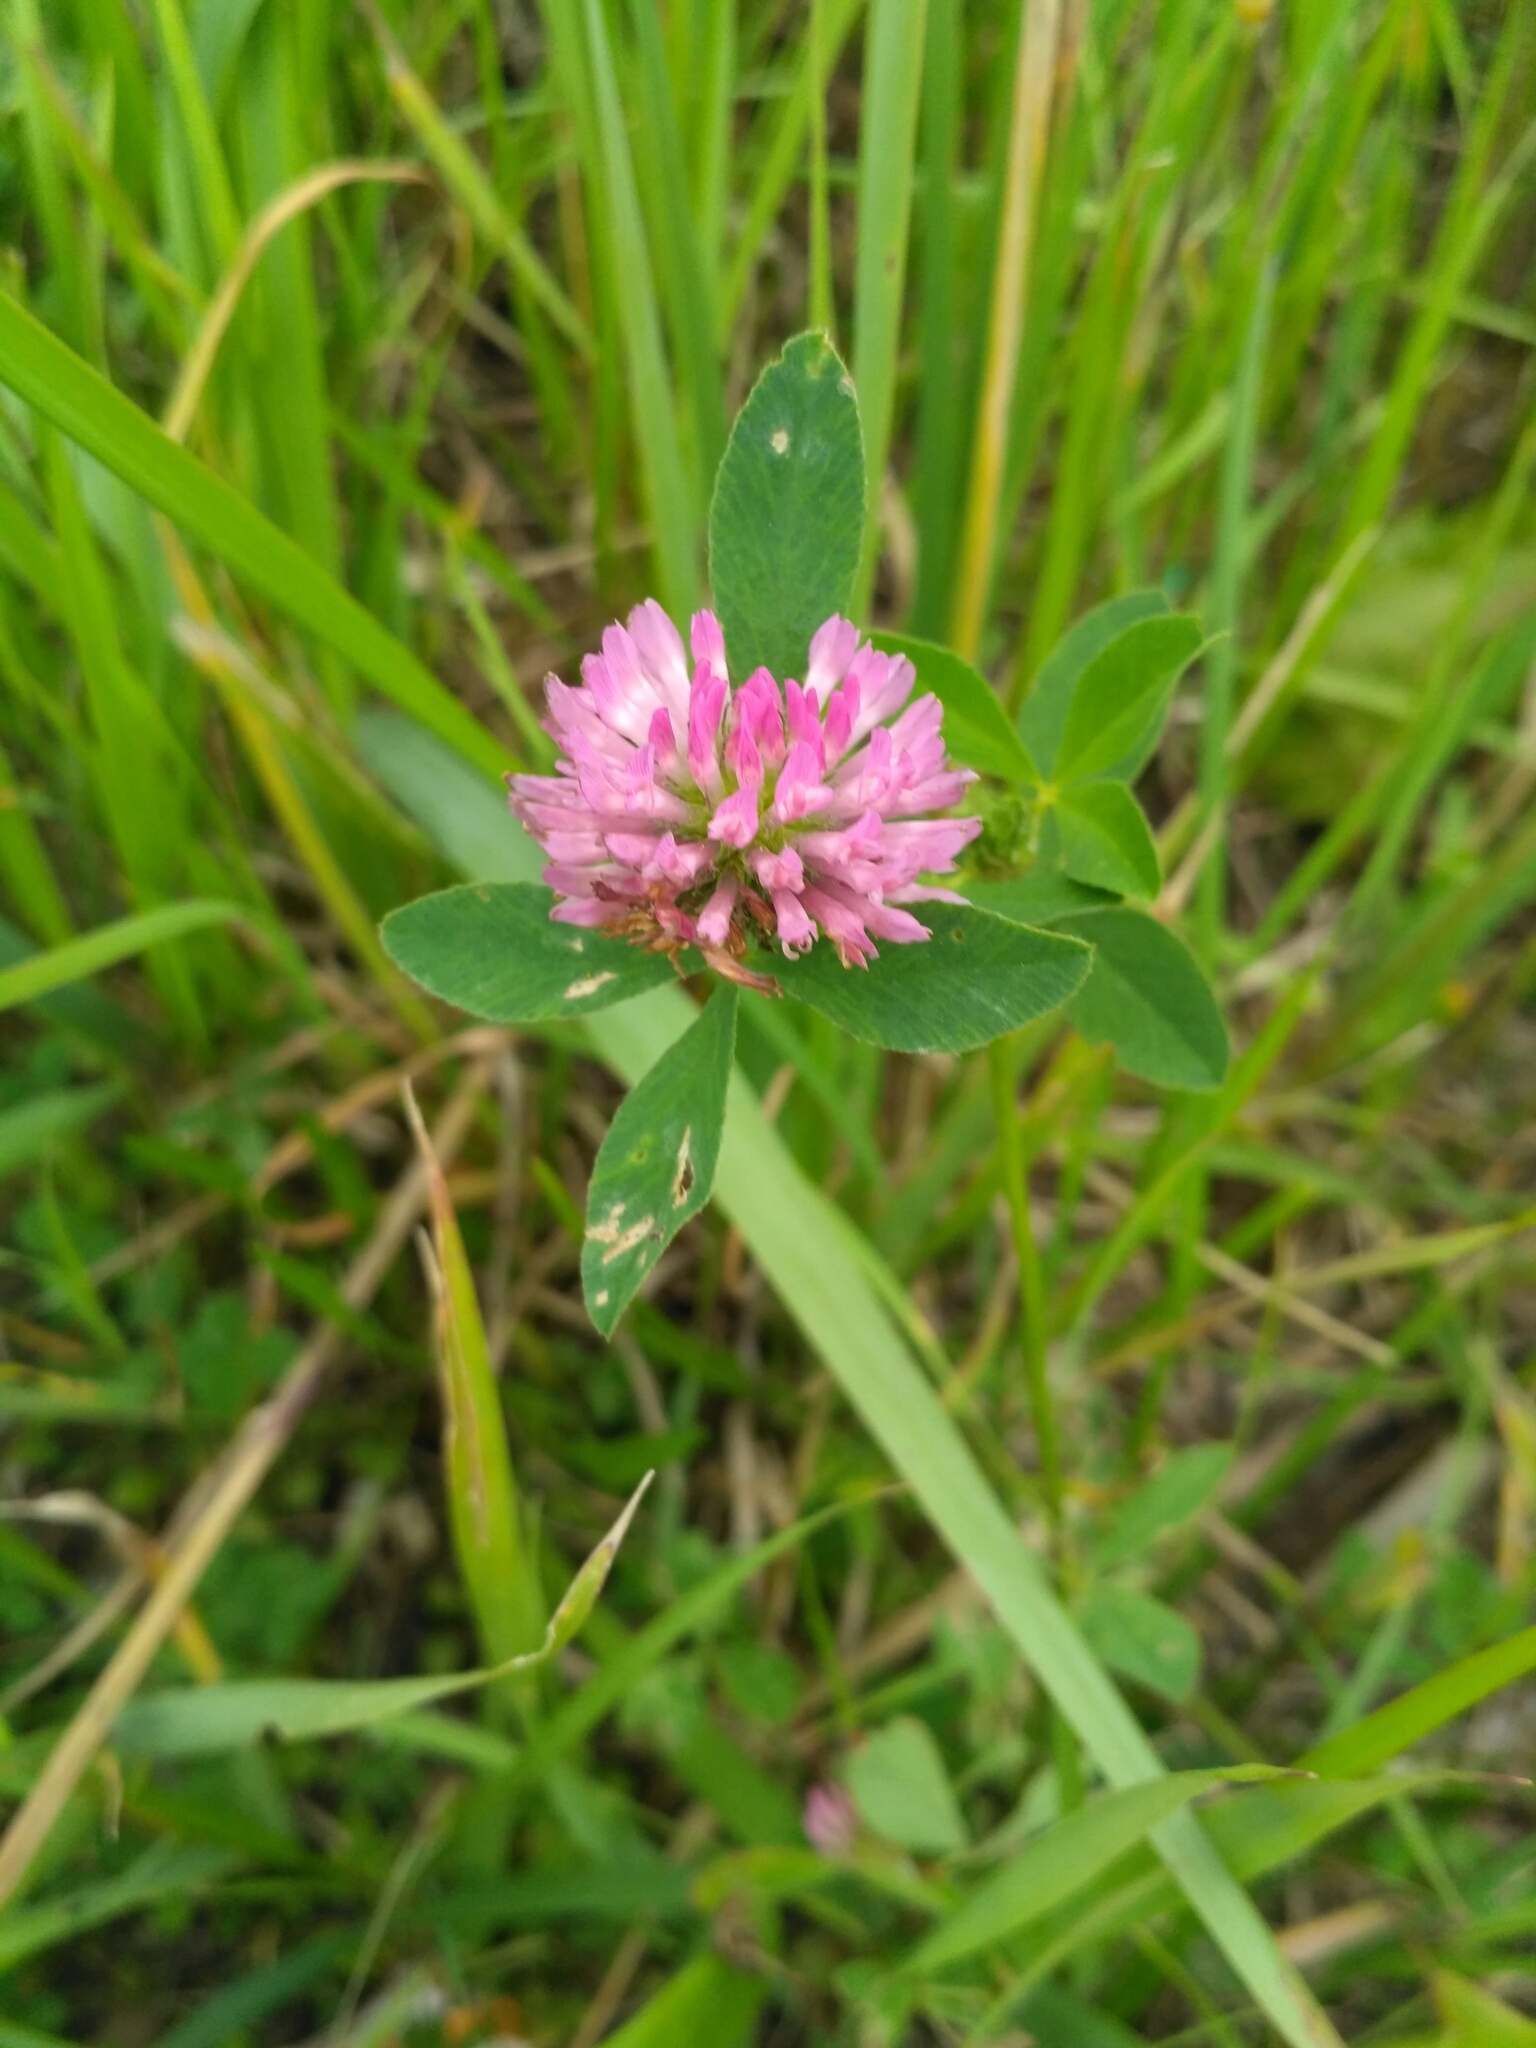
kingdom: Plantae
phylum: Tracheophyta
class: Magnoliopsida
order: Fabales
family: Fabaceae
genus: Trifolium
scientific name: Trifolium medium
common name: Zigzag clover
